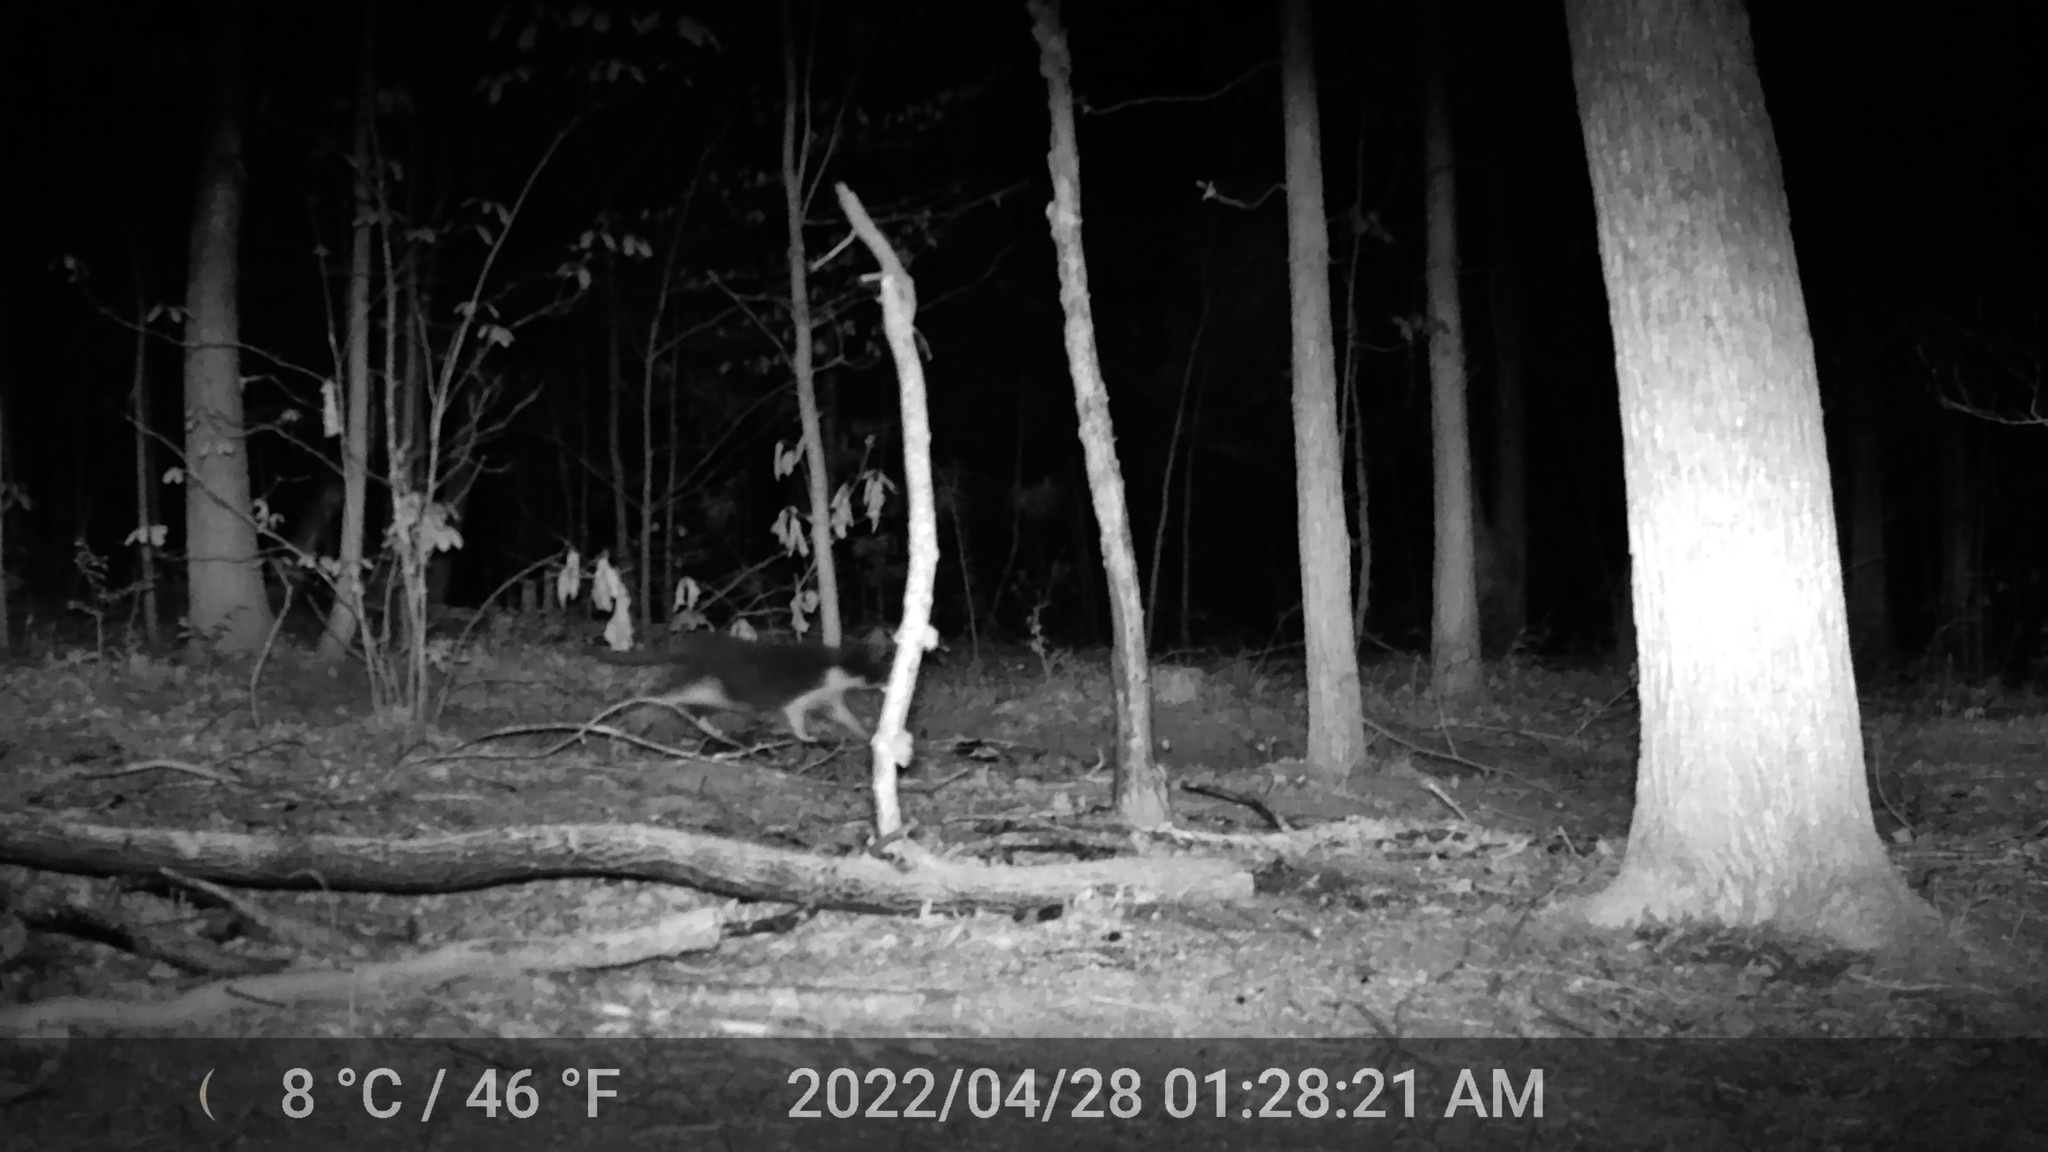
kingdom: Animalia
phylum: Chordata
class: Mammalia
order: Carnivora
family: Felidae
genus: Felis
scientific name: Felis catus
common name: Domestic cat
